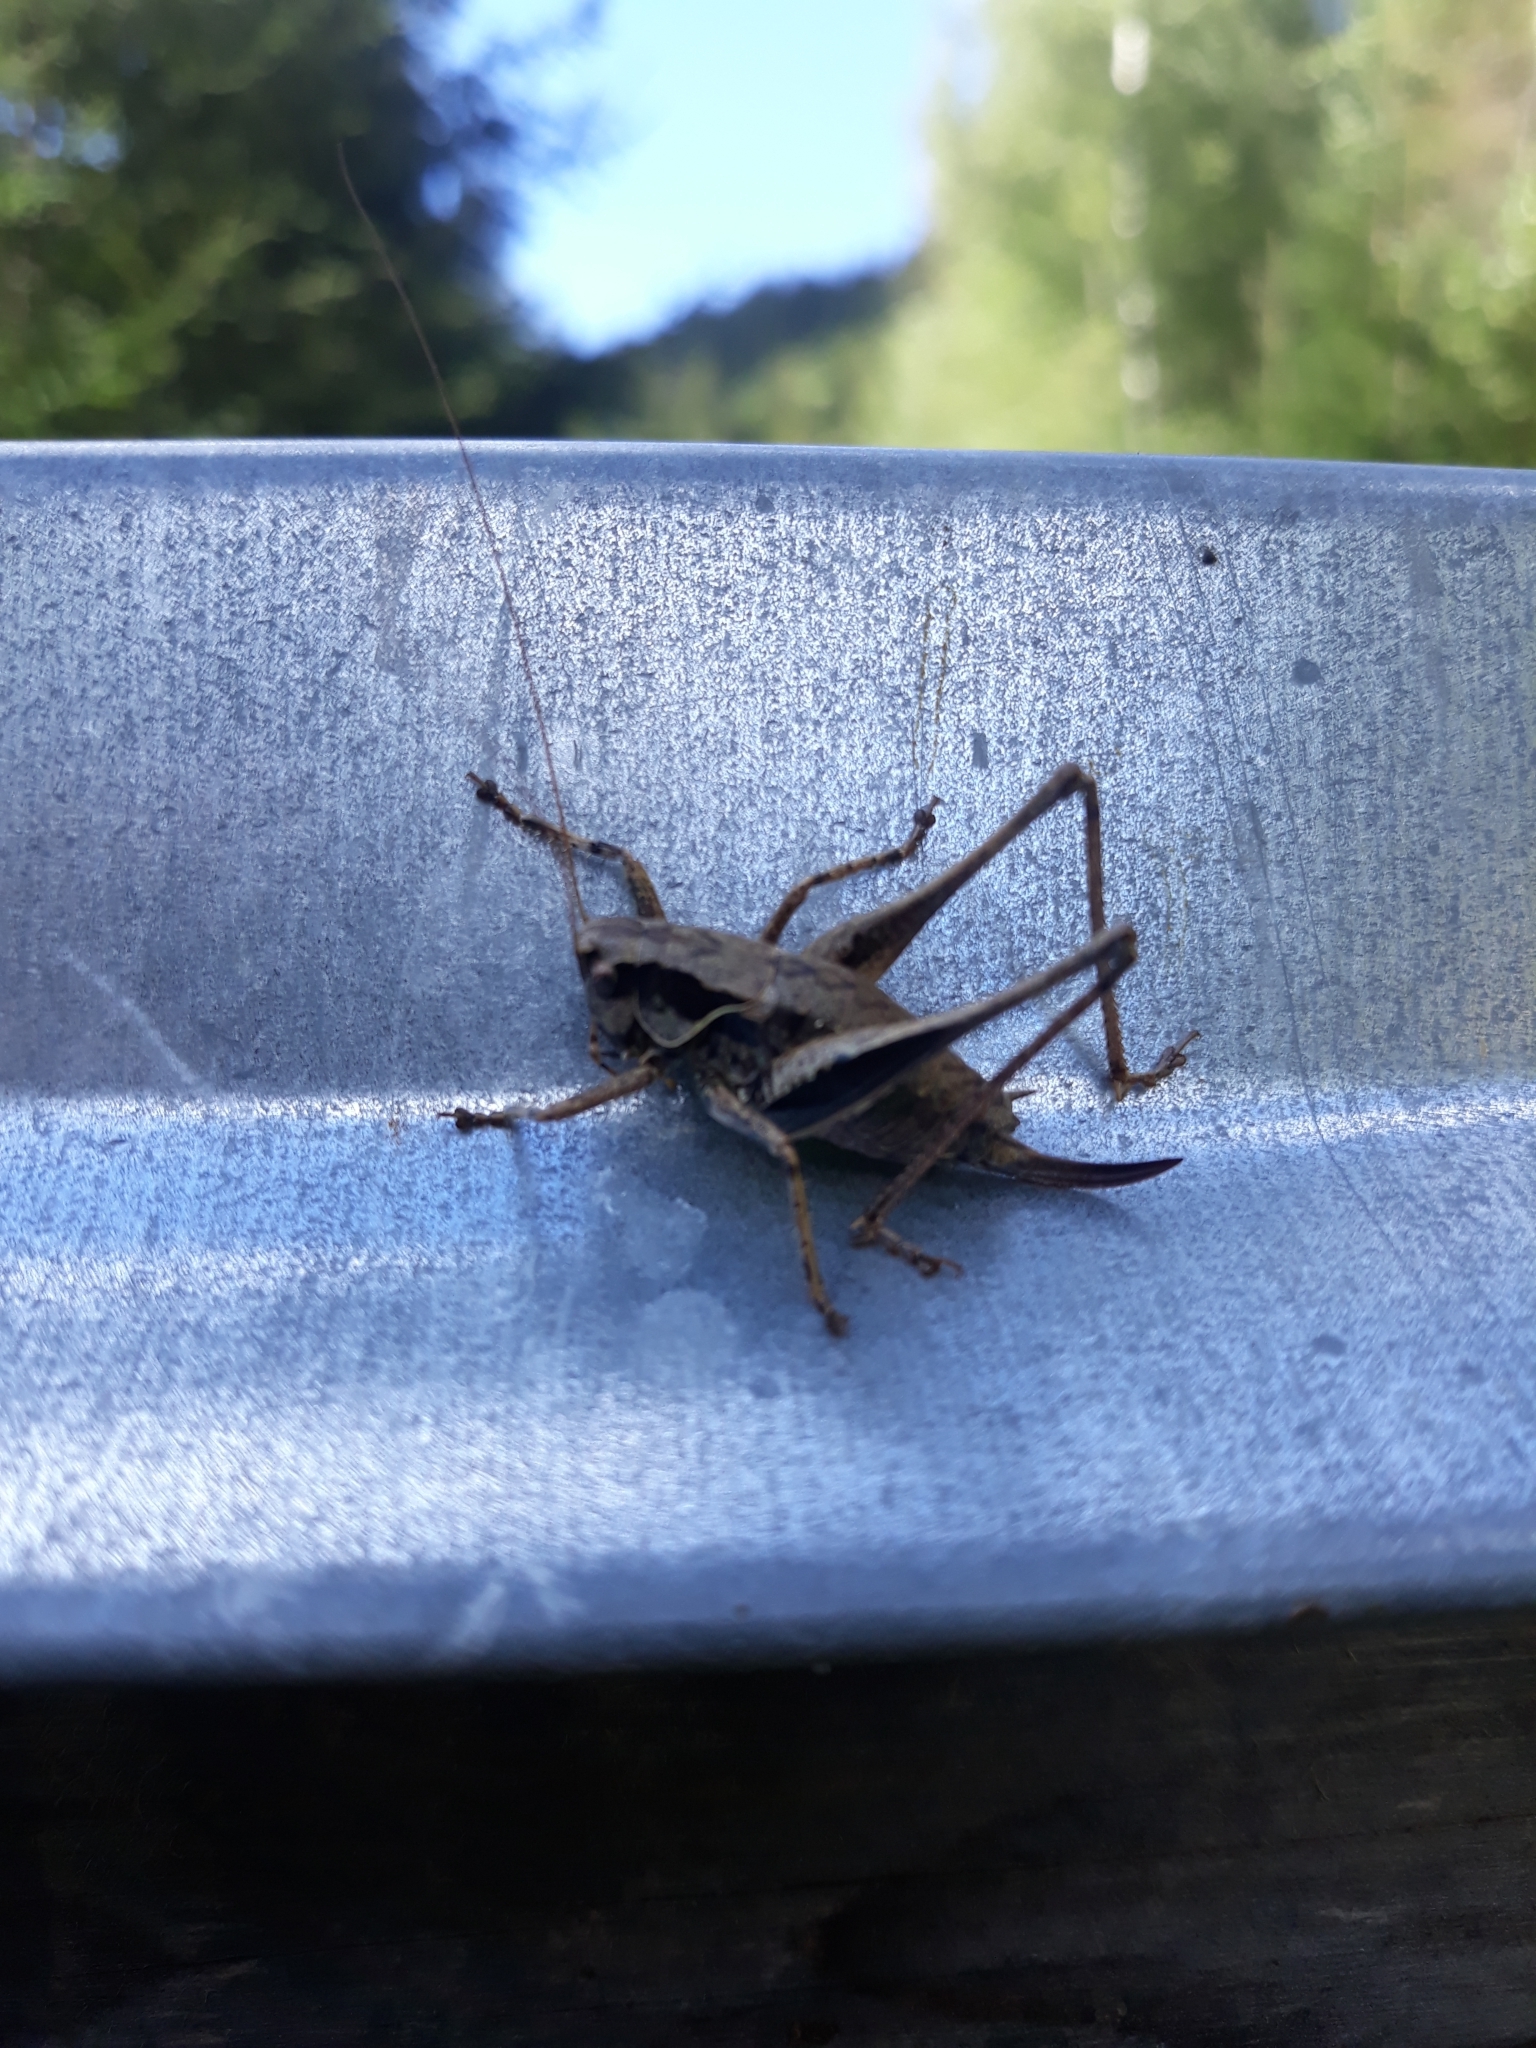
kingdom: Animalia
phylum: Arthropoda
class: Insecta
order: Orthoptera
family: Tettigoniidae
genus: Pholidoptera
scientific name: Pholidoptera griseoaptera
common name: Dark bush-cricket
